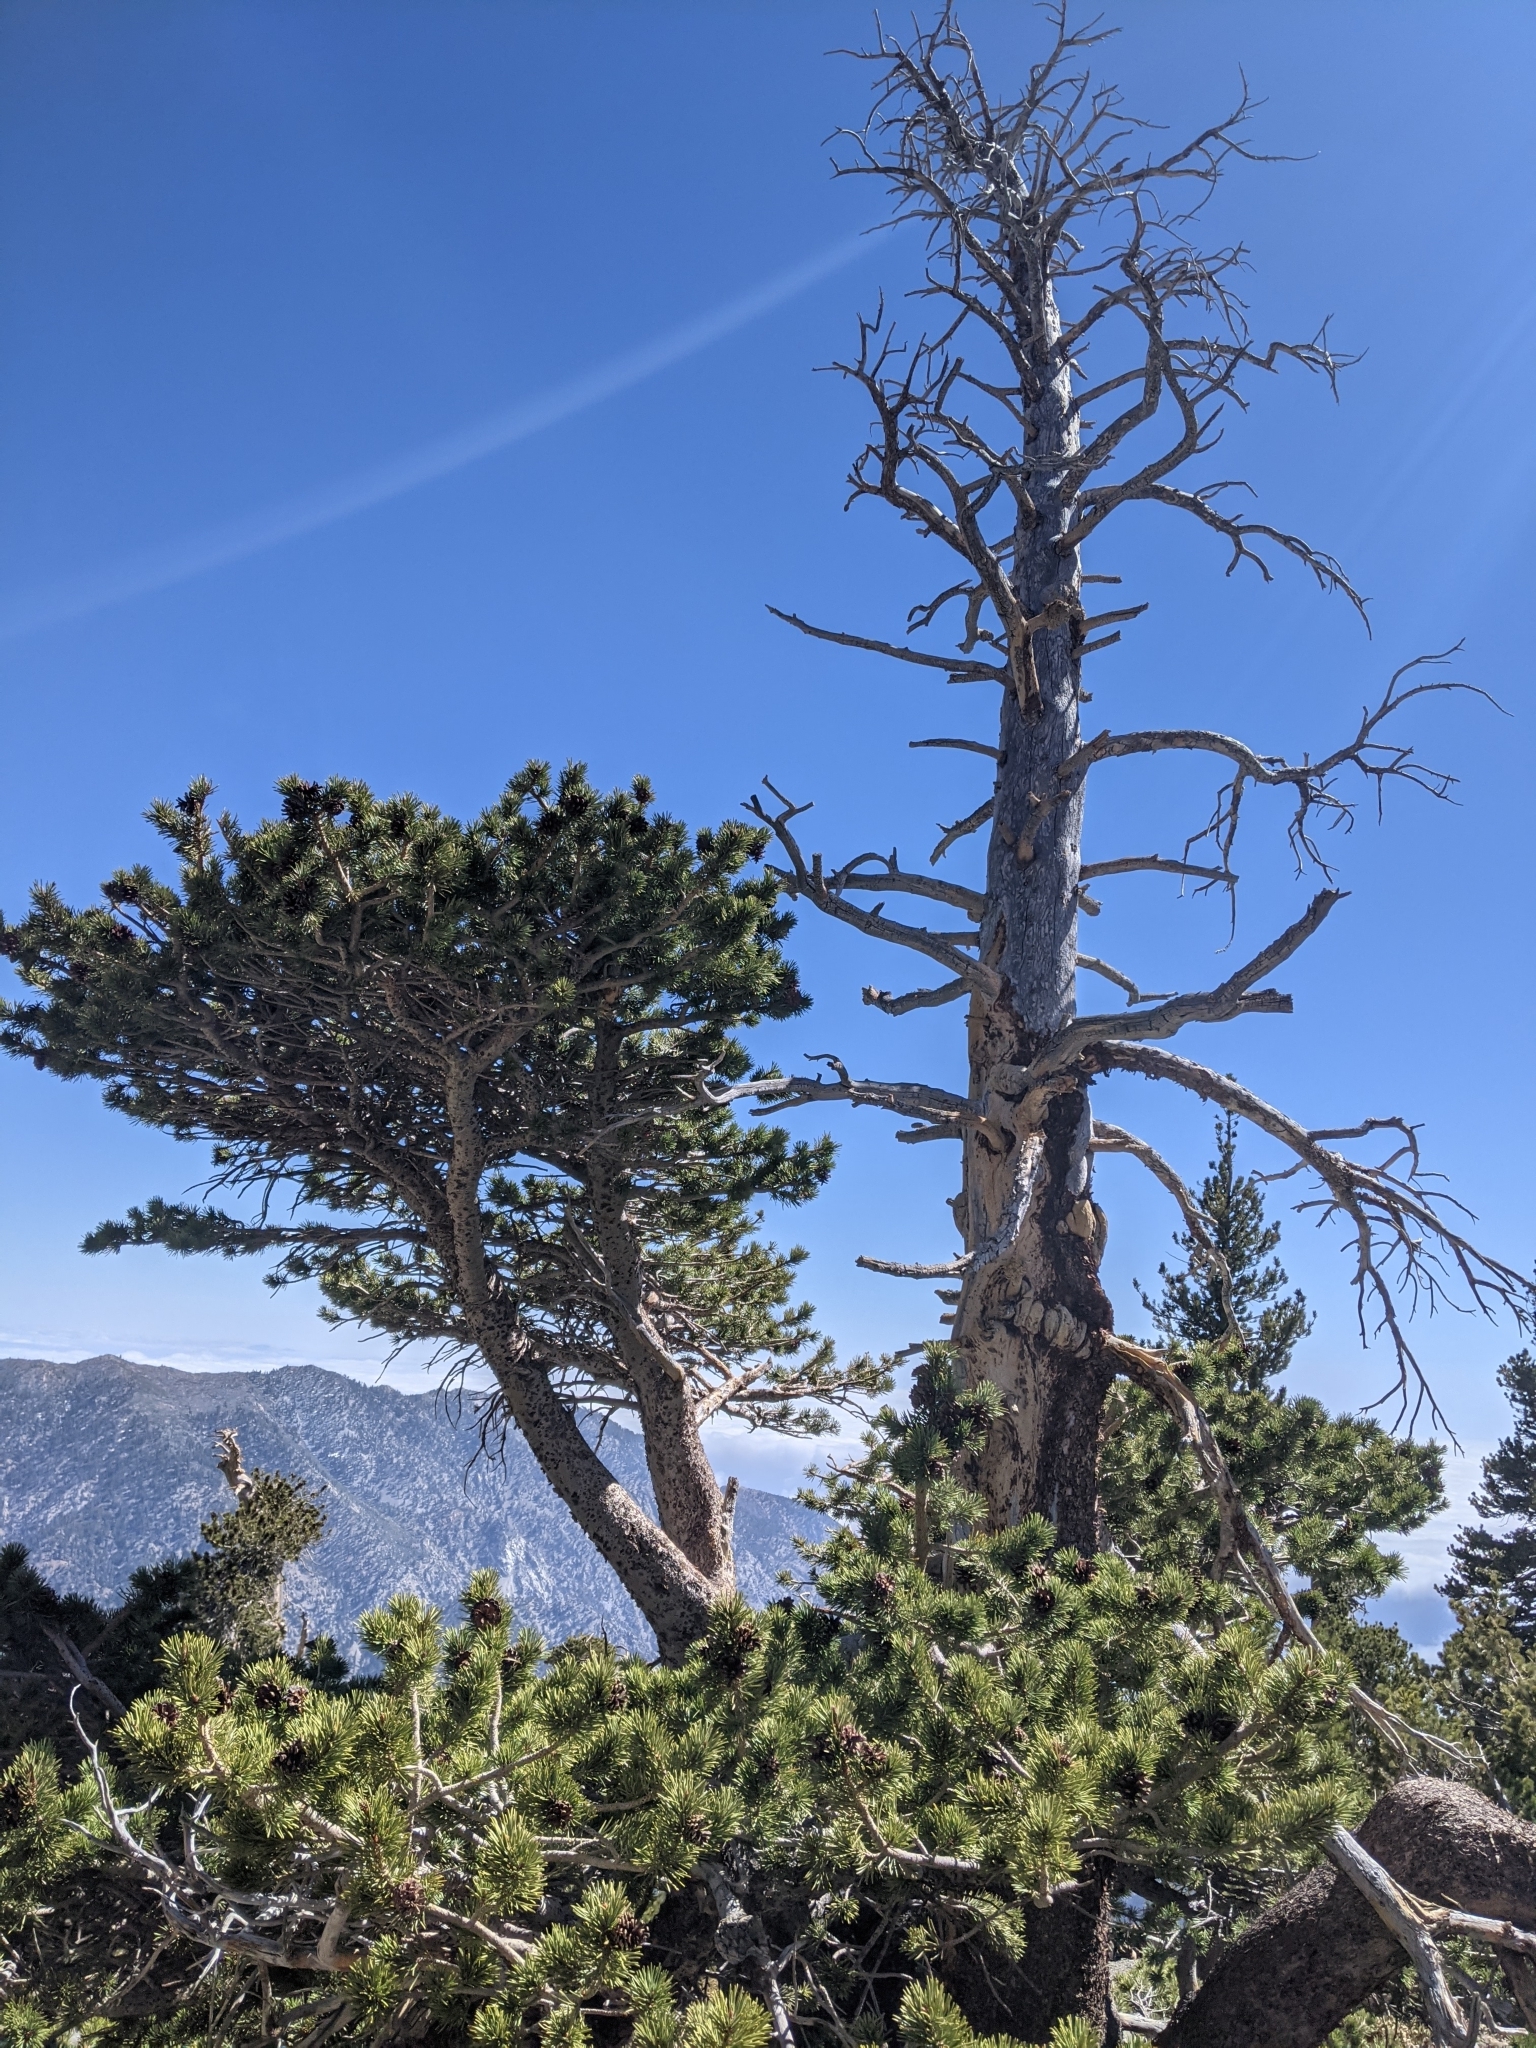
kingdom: Plantae
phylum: Tracheophyta
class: Pinopsida
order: Pinales
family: Pinaceae
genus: Pinus
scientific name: Pinus contorta
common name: Lodgepole pine
